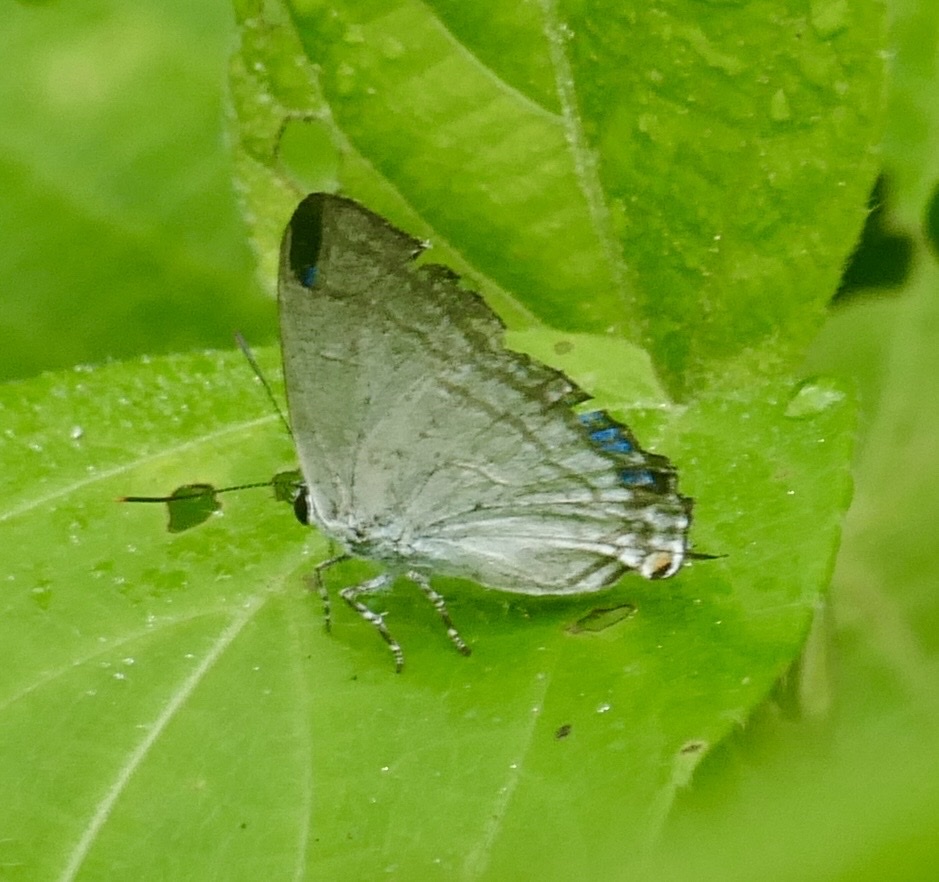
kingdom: Animalia
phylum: Arthropoda
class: Insecta
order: Lepidoptera
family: Lycaenidae
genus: Hypolycaena
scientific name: Hypolycaena phorbas
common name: Black-spotted flash
